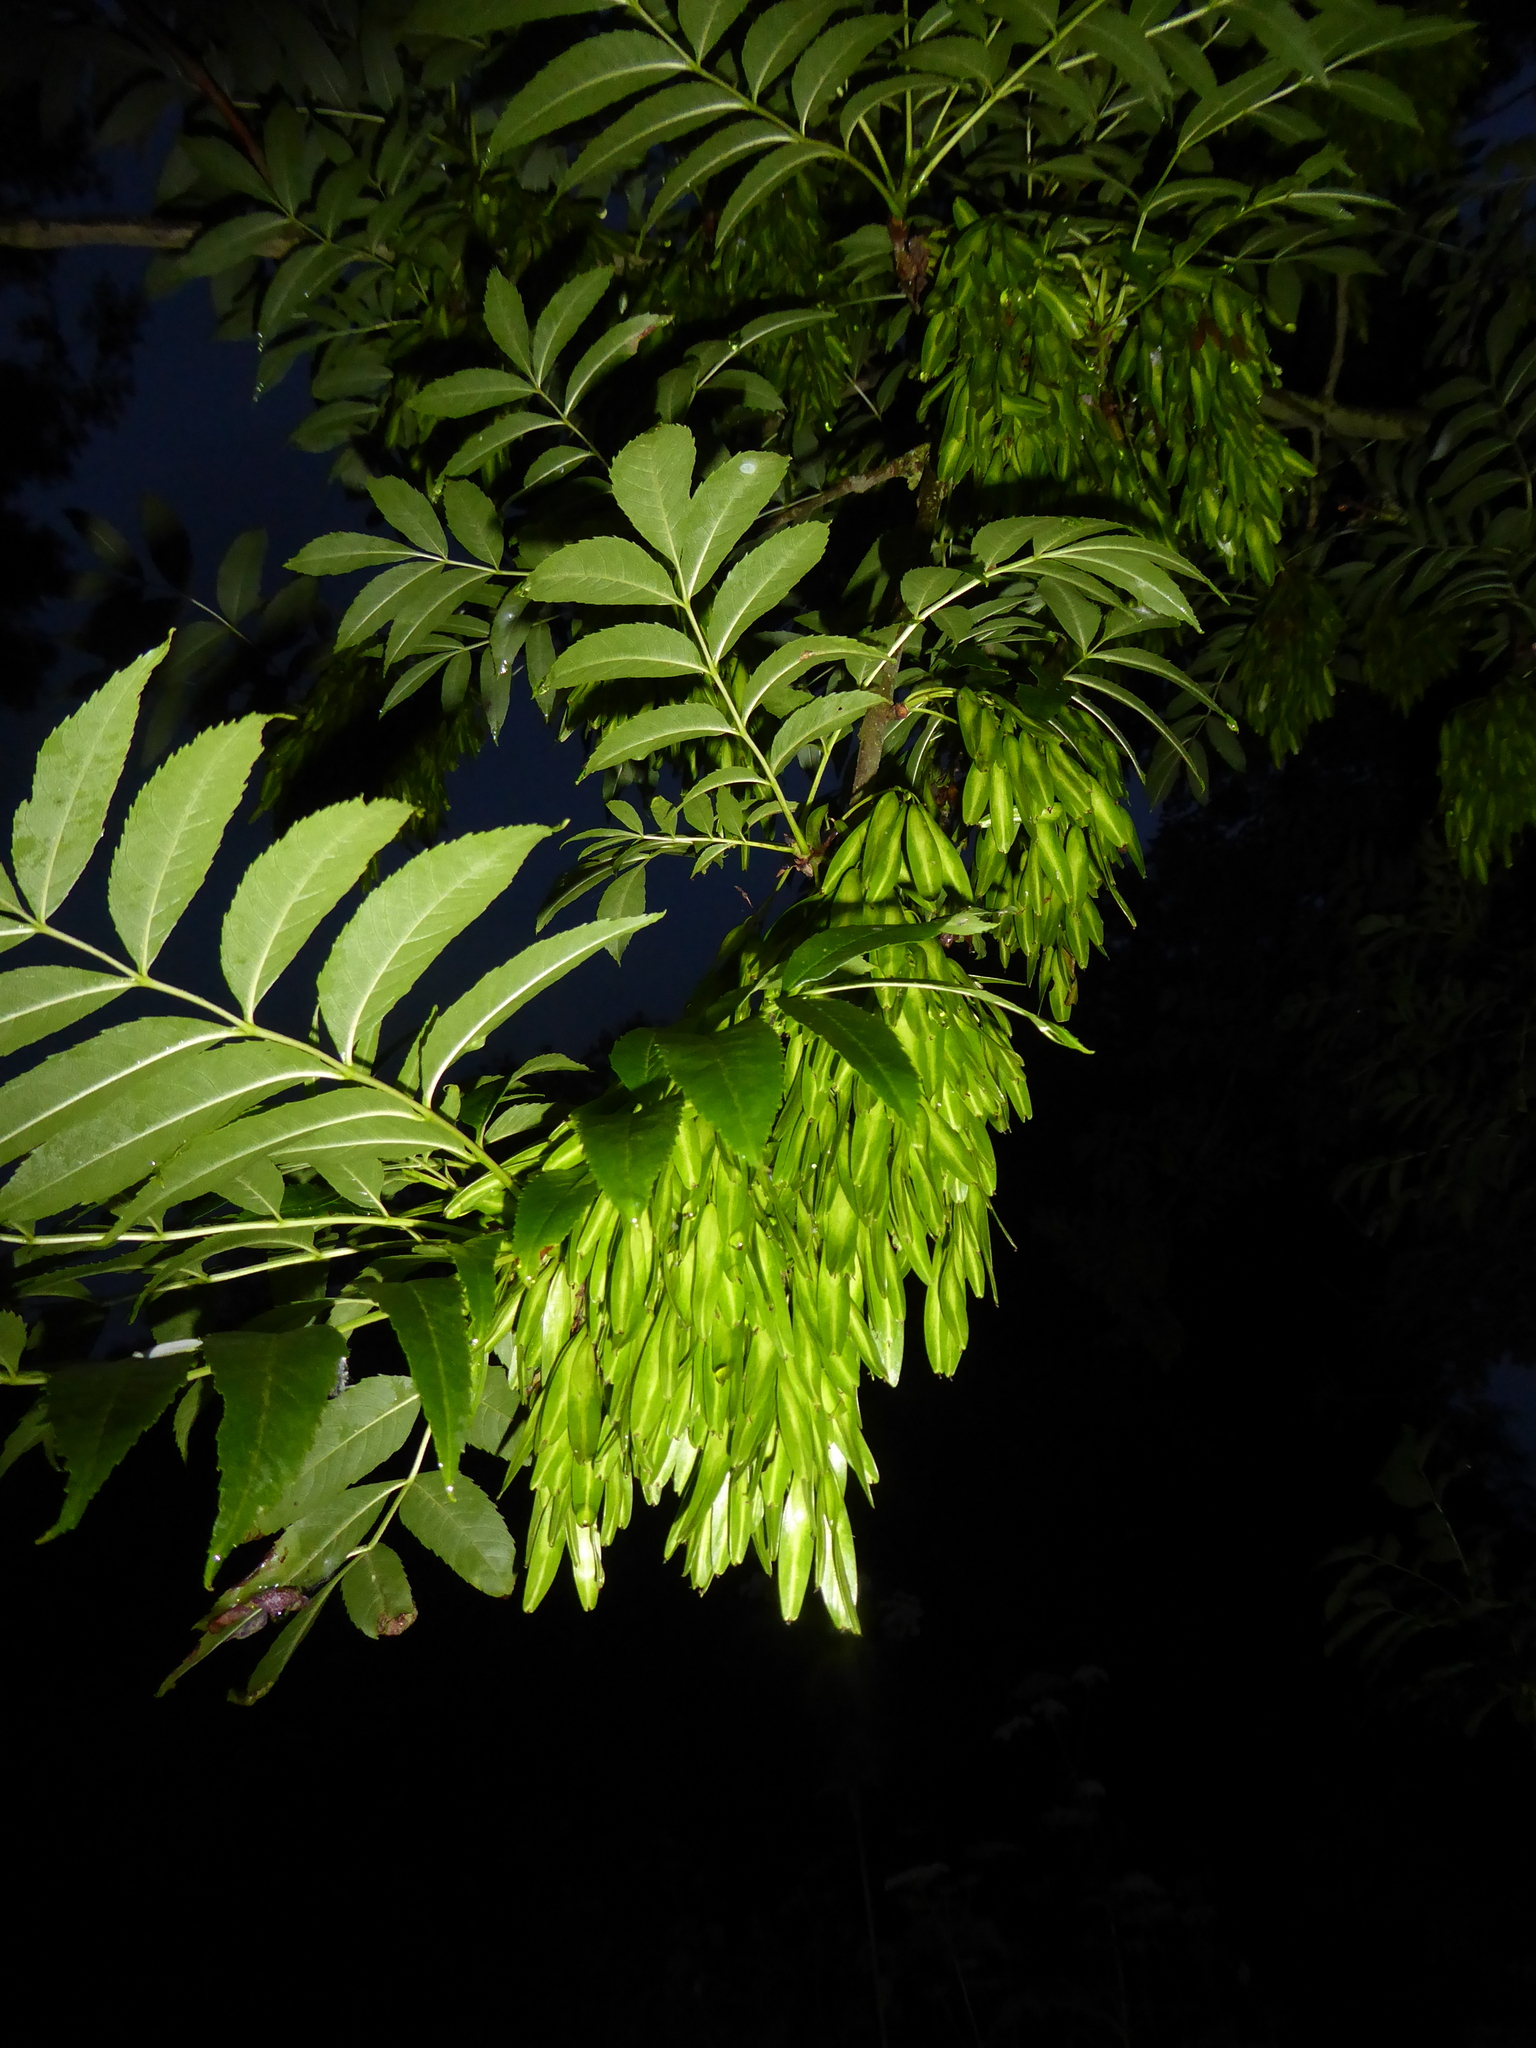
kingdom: Plantae
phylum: Tracheophyta
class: Magnoliopsida
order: Lamiales
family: Oleaceae
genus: Fraxinus
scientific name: Fraxinus excelsior
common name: European ash
